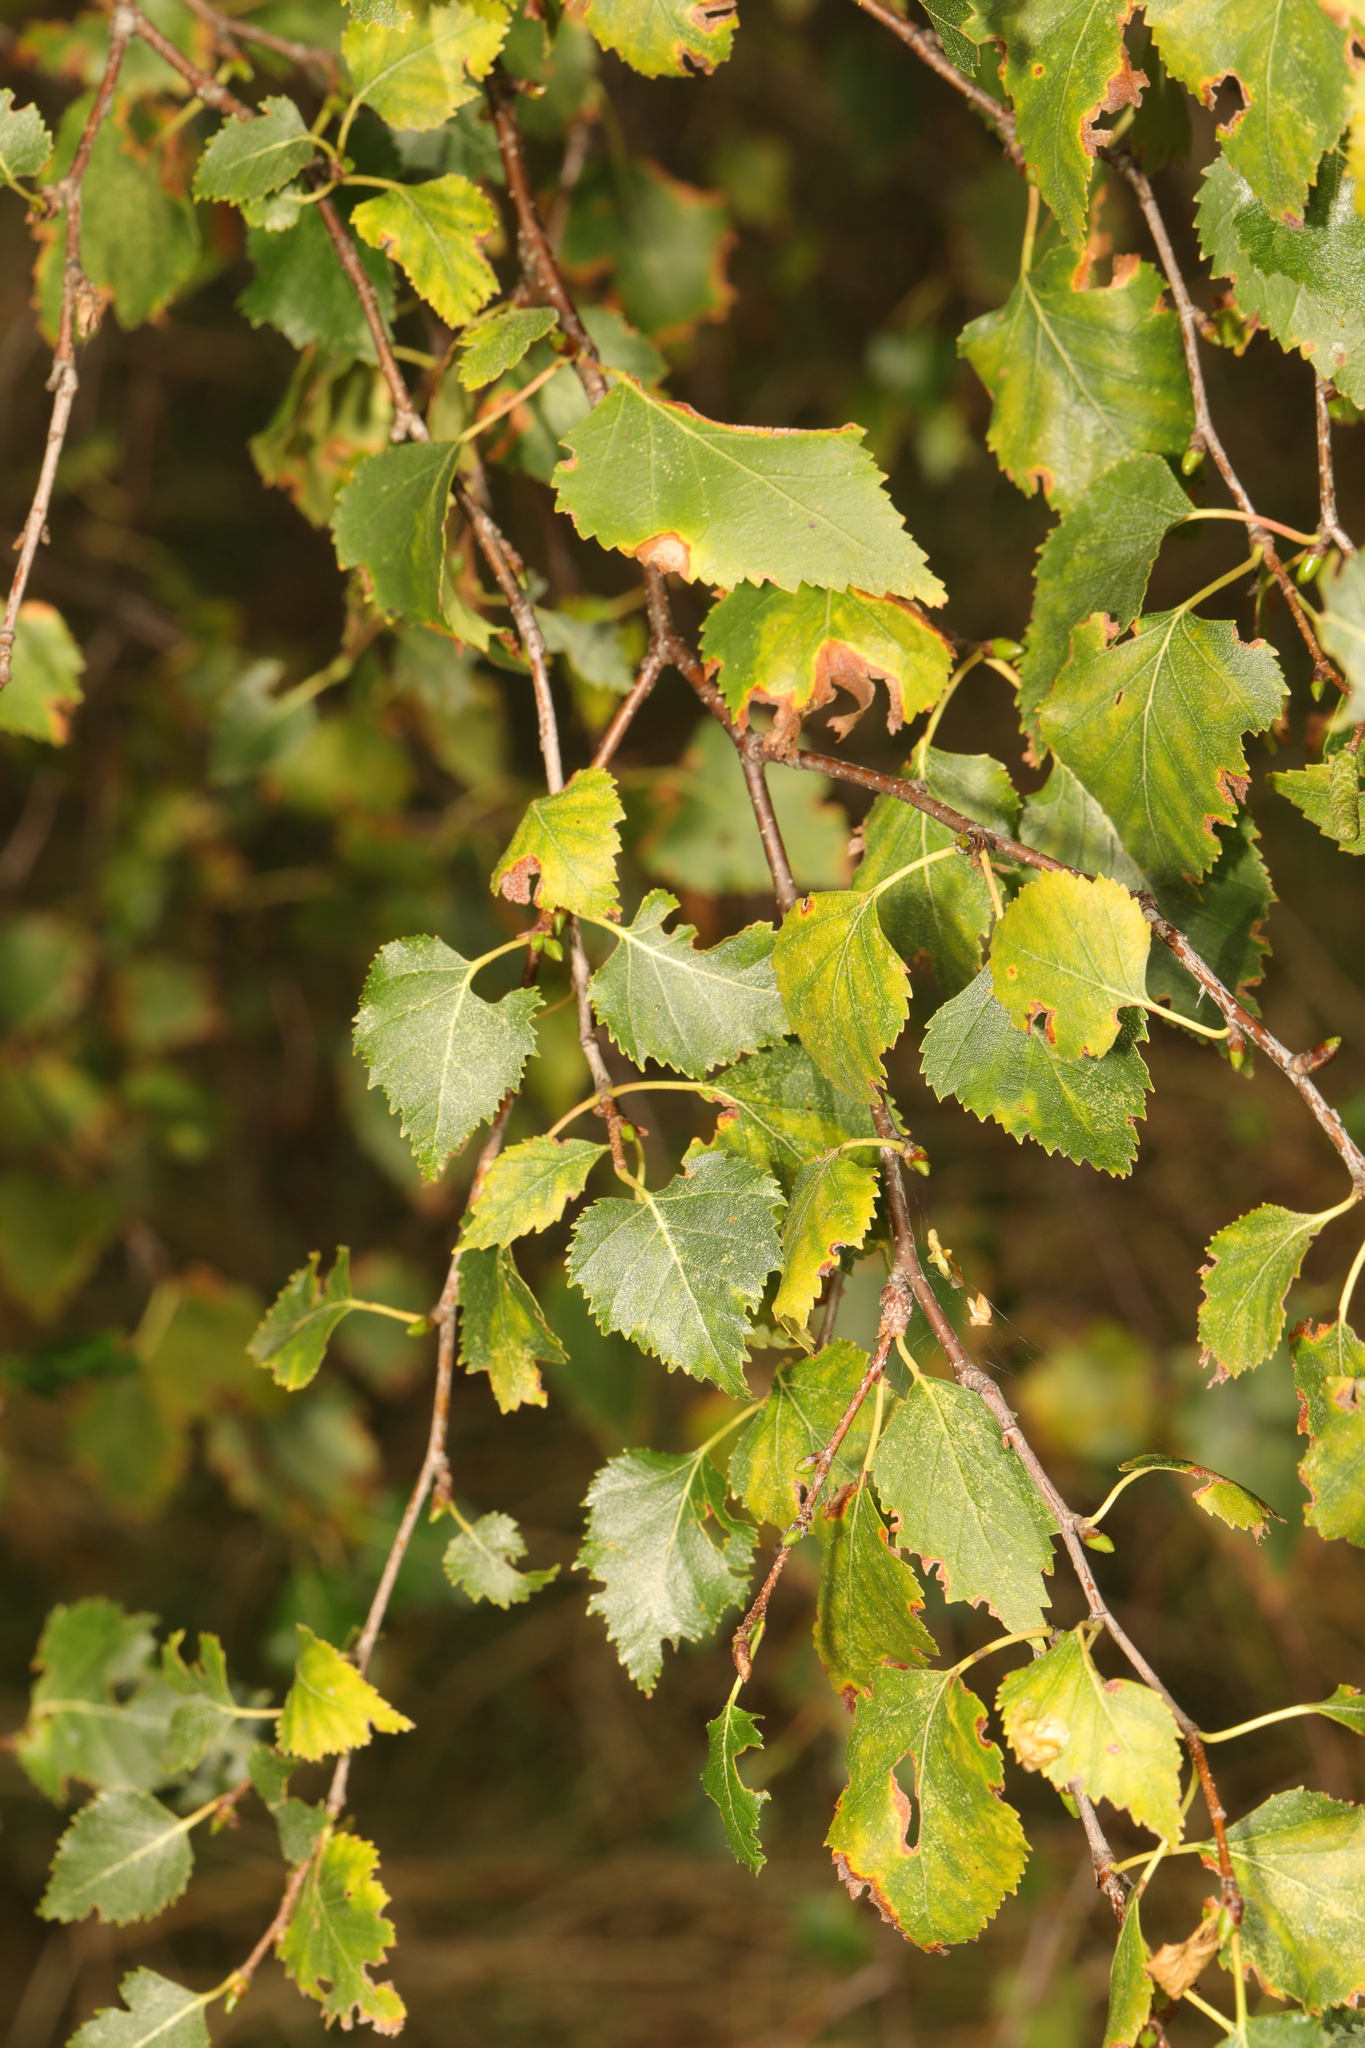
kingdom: Plantae
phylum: Tracheophyta
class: Magnoliopsida
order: Fagales
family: Betulaceae
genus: Betula
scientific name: Betula pendula
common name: Silver birch
